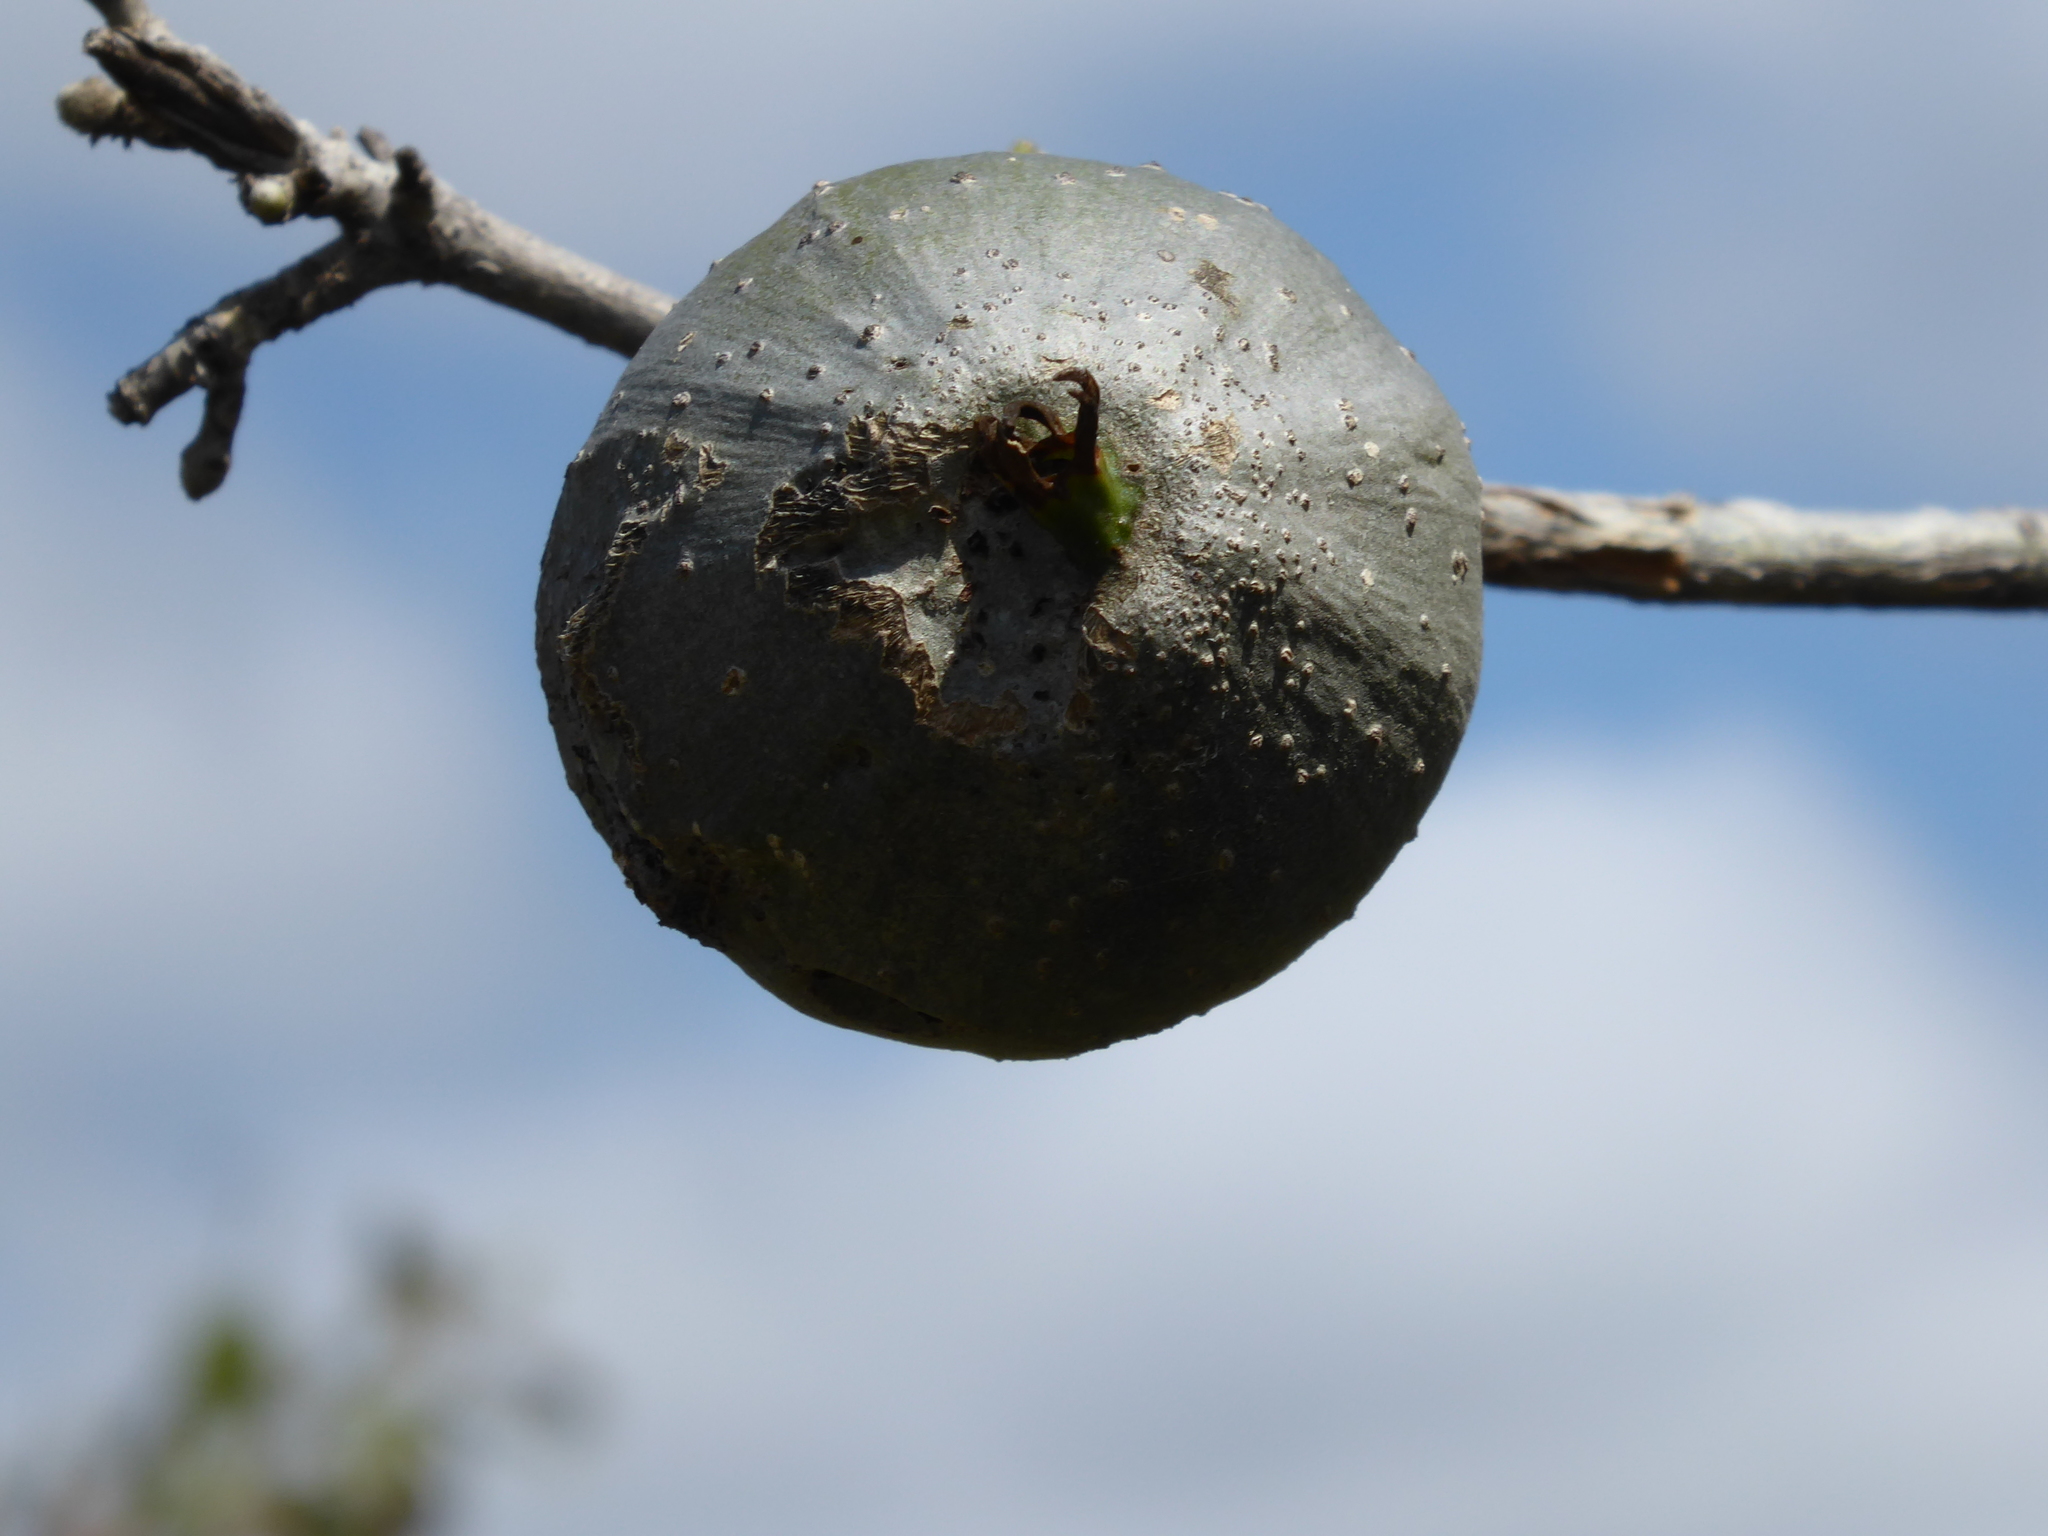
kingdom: Plantae
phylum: Tracheophyta
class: Magnoliopsida
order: Gentianales
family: Rubiaceae
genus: Gardenia
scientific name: Gardenia volkensii
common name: Common gardenia
